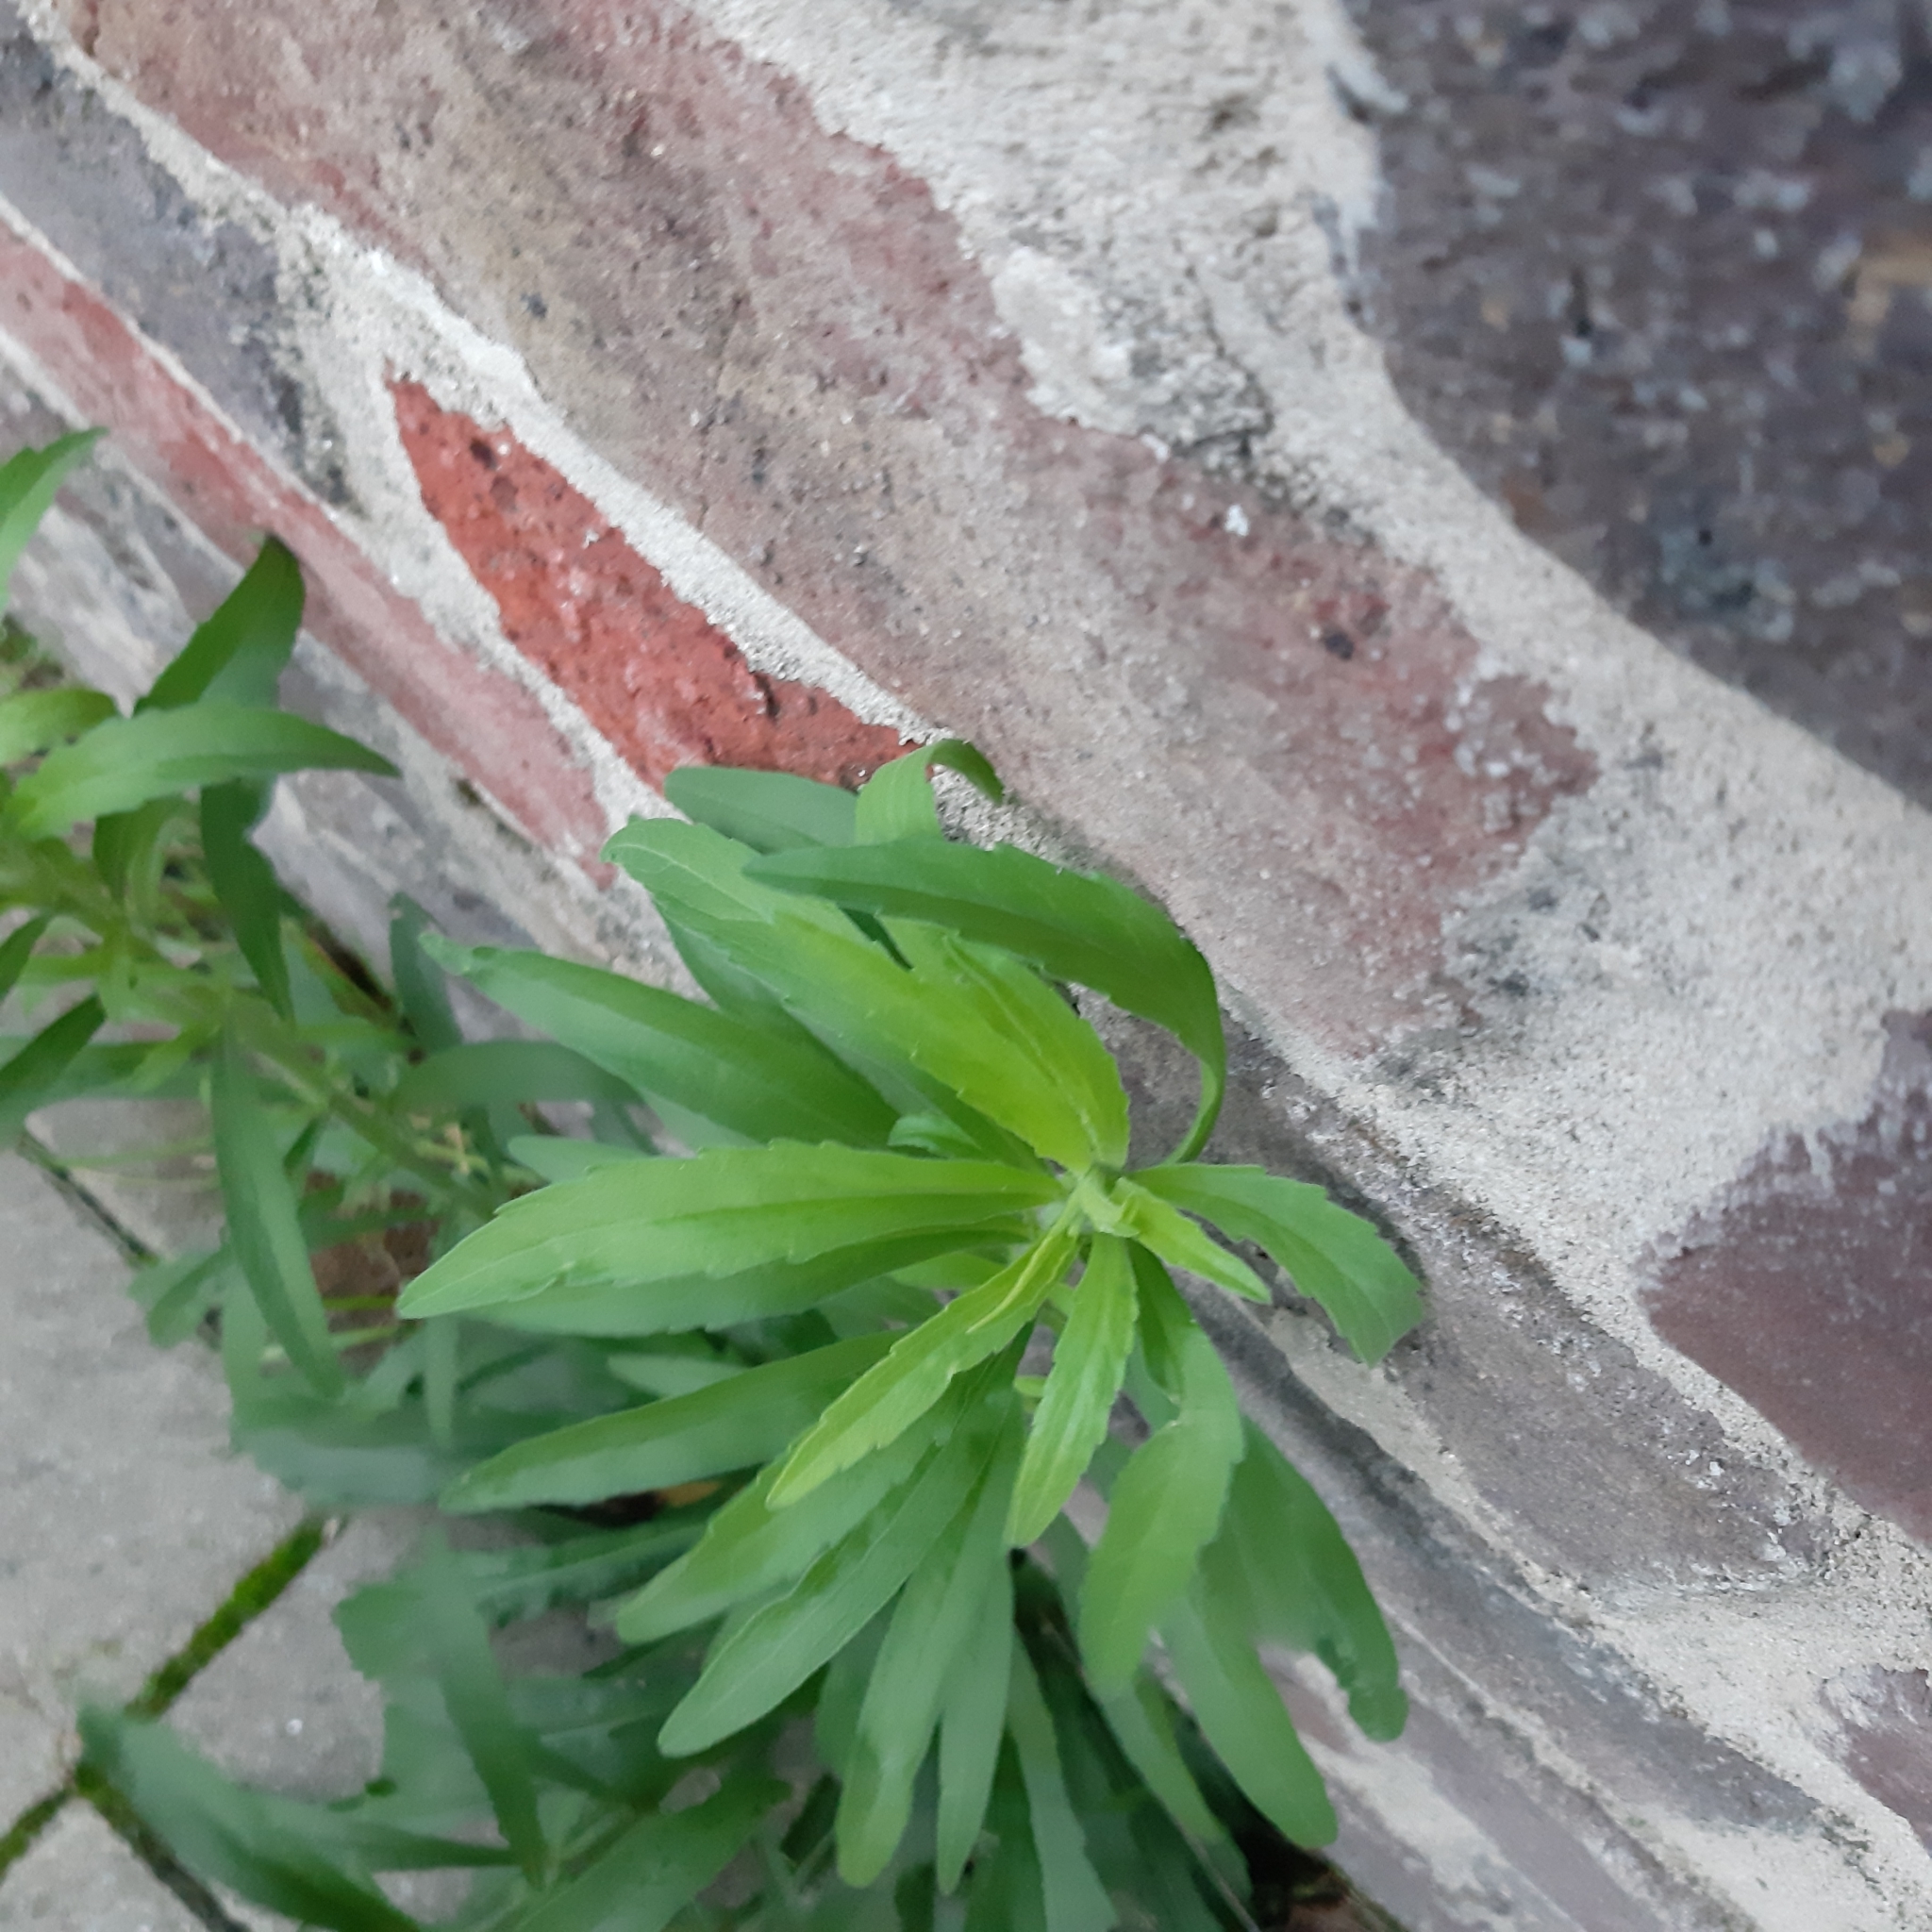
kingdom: Plantae
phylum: Tracheophyta
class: Magnoliopsida
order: Asterales
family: Asteraceae
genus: Erigeron
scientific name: Erigeron sumatrensis
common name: Daisy
